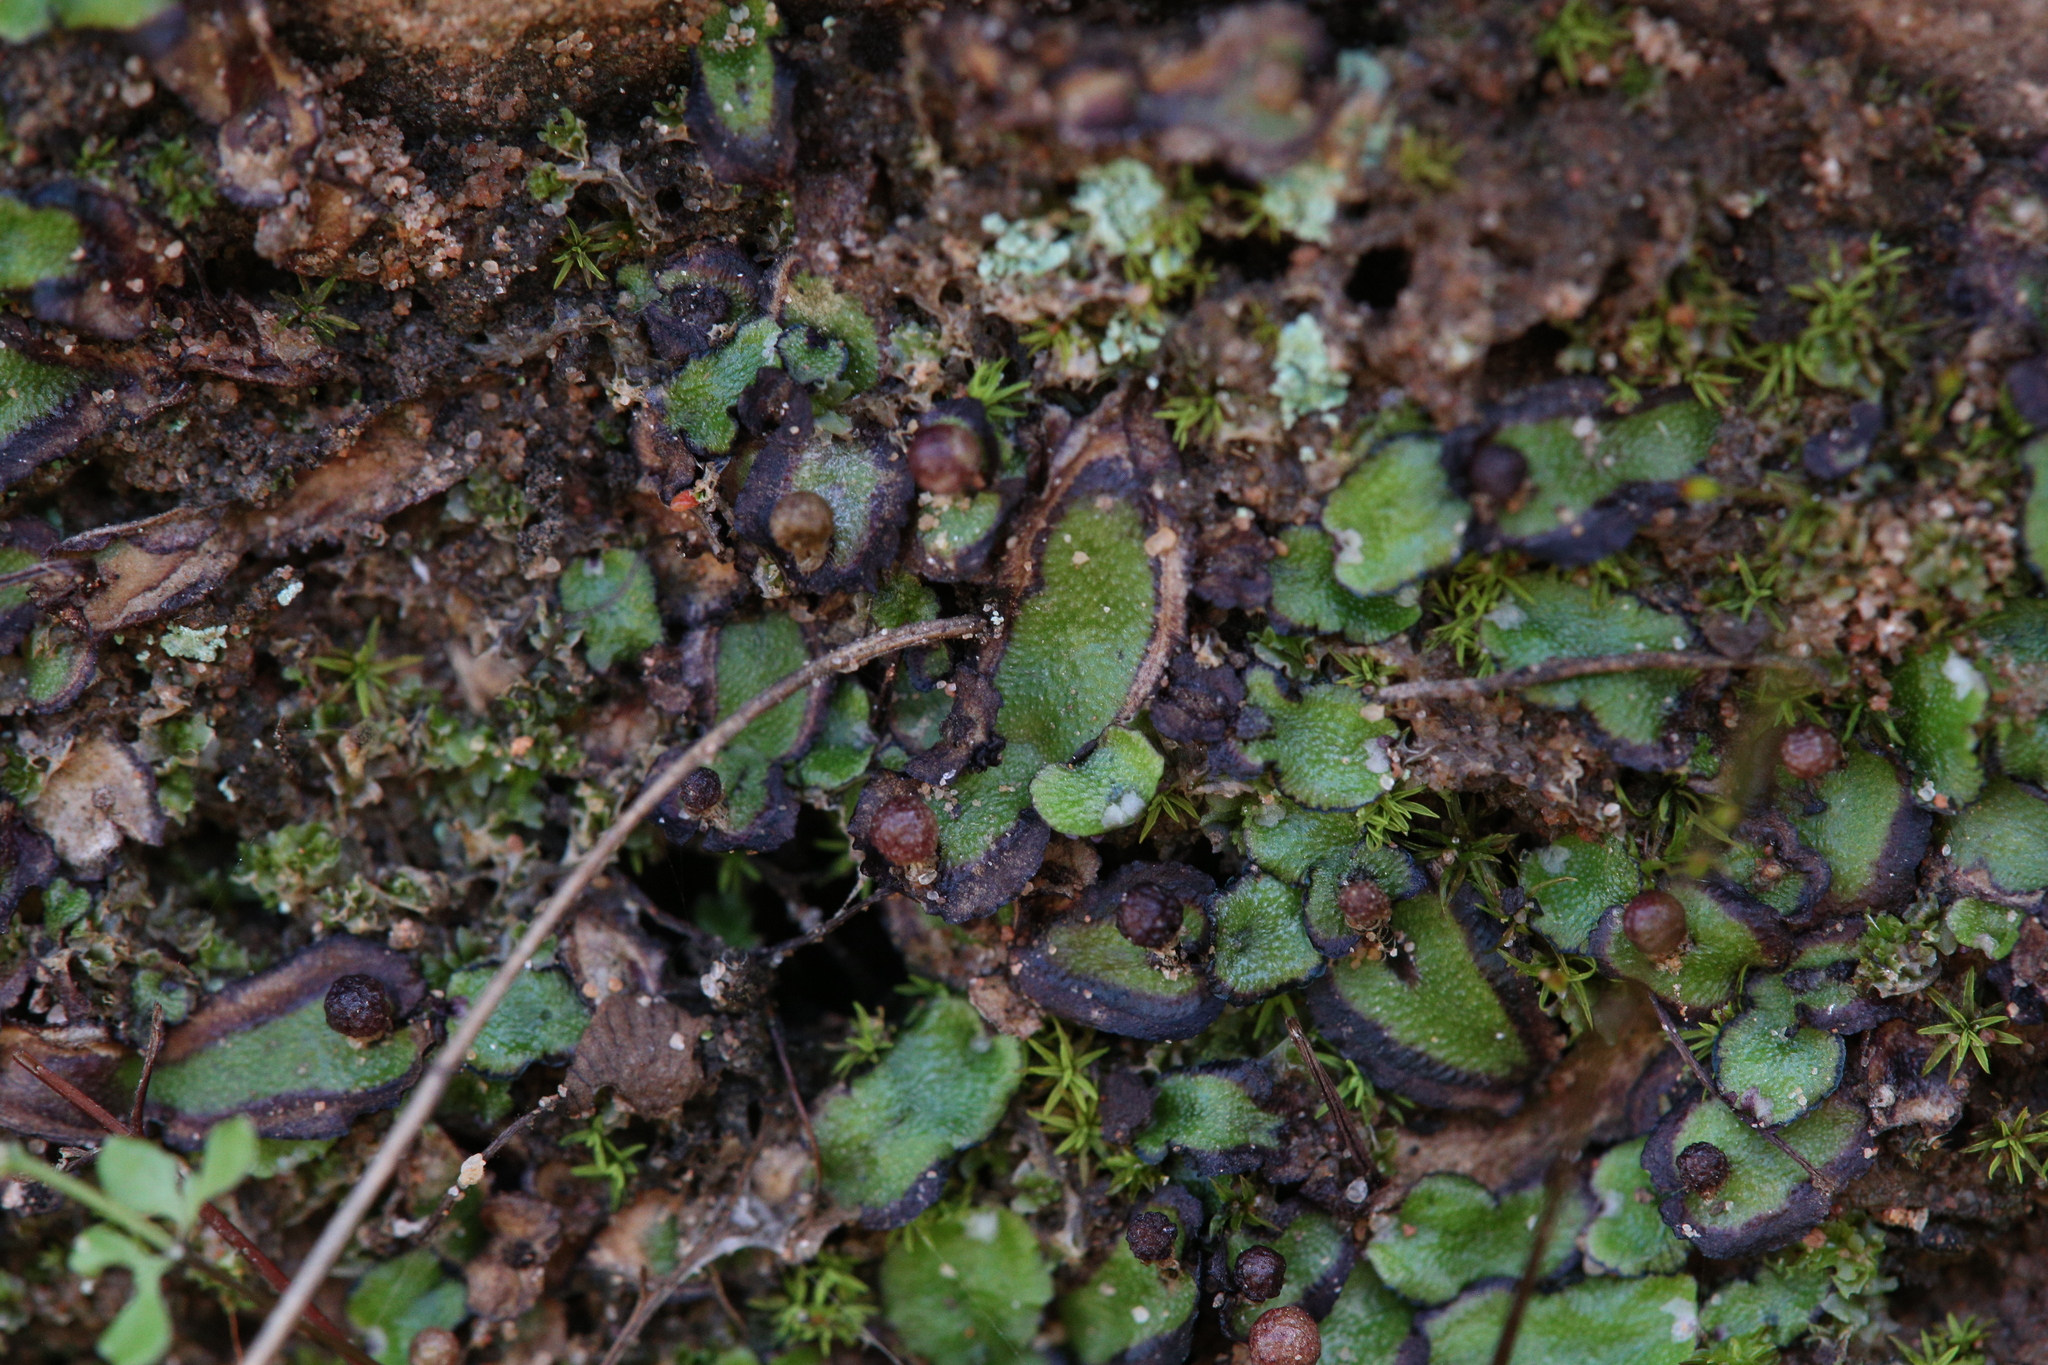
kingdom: Plantae
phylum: Marchantiophyta
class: Marchantiopsida
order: Marchantiales
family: Aytoniaceae
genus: Asterella
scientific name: Asterella drummondii
